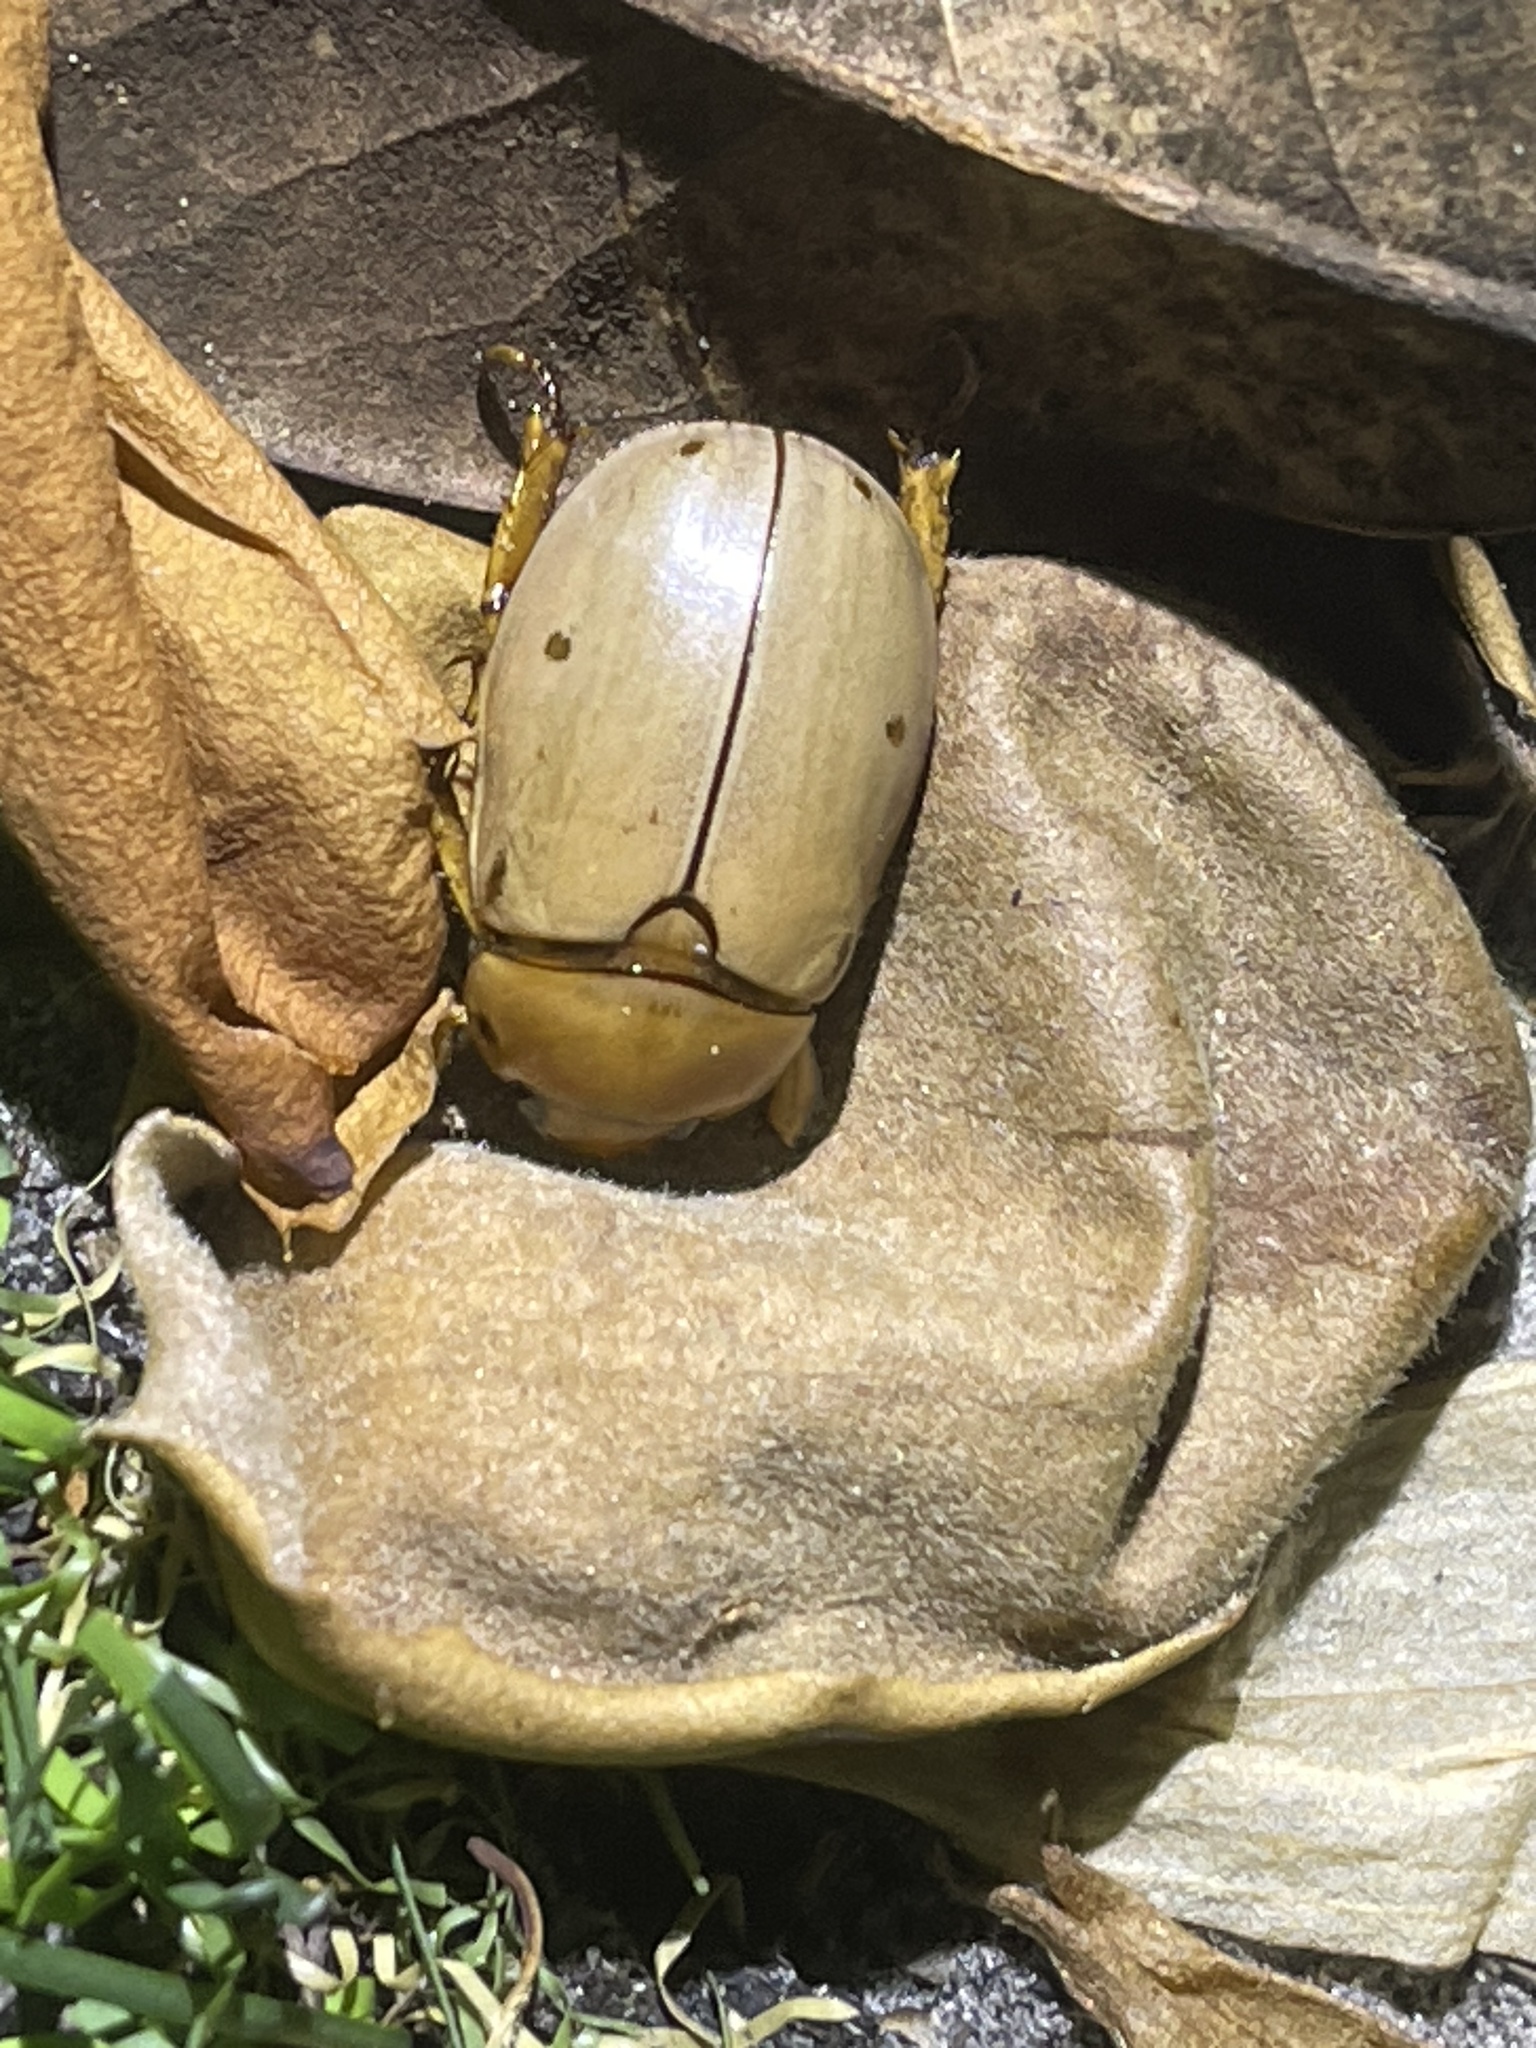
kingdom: Animalia
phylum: Arthropoda
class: Insecta
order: Coleoptera
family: Scarabaeidae
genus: Pelidnota
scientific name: Pelidnota punctata
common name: Grapevine beetle
